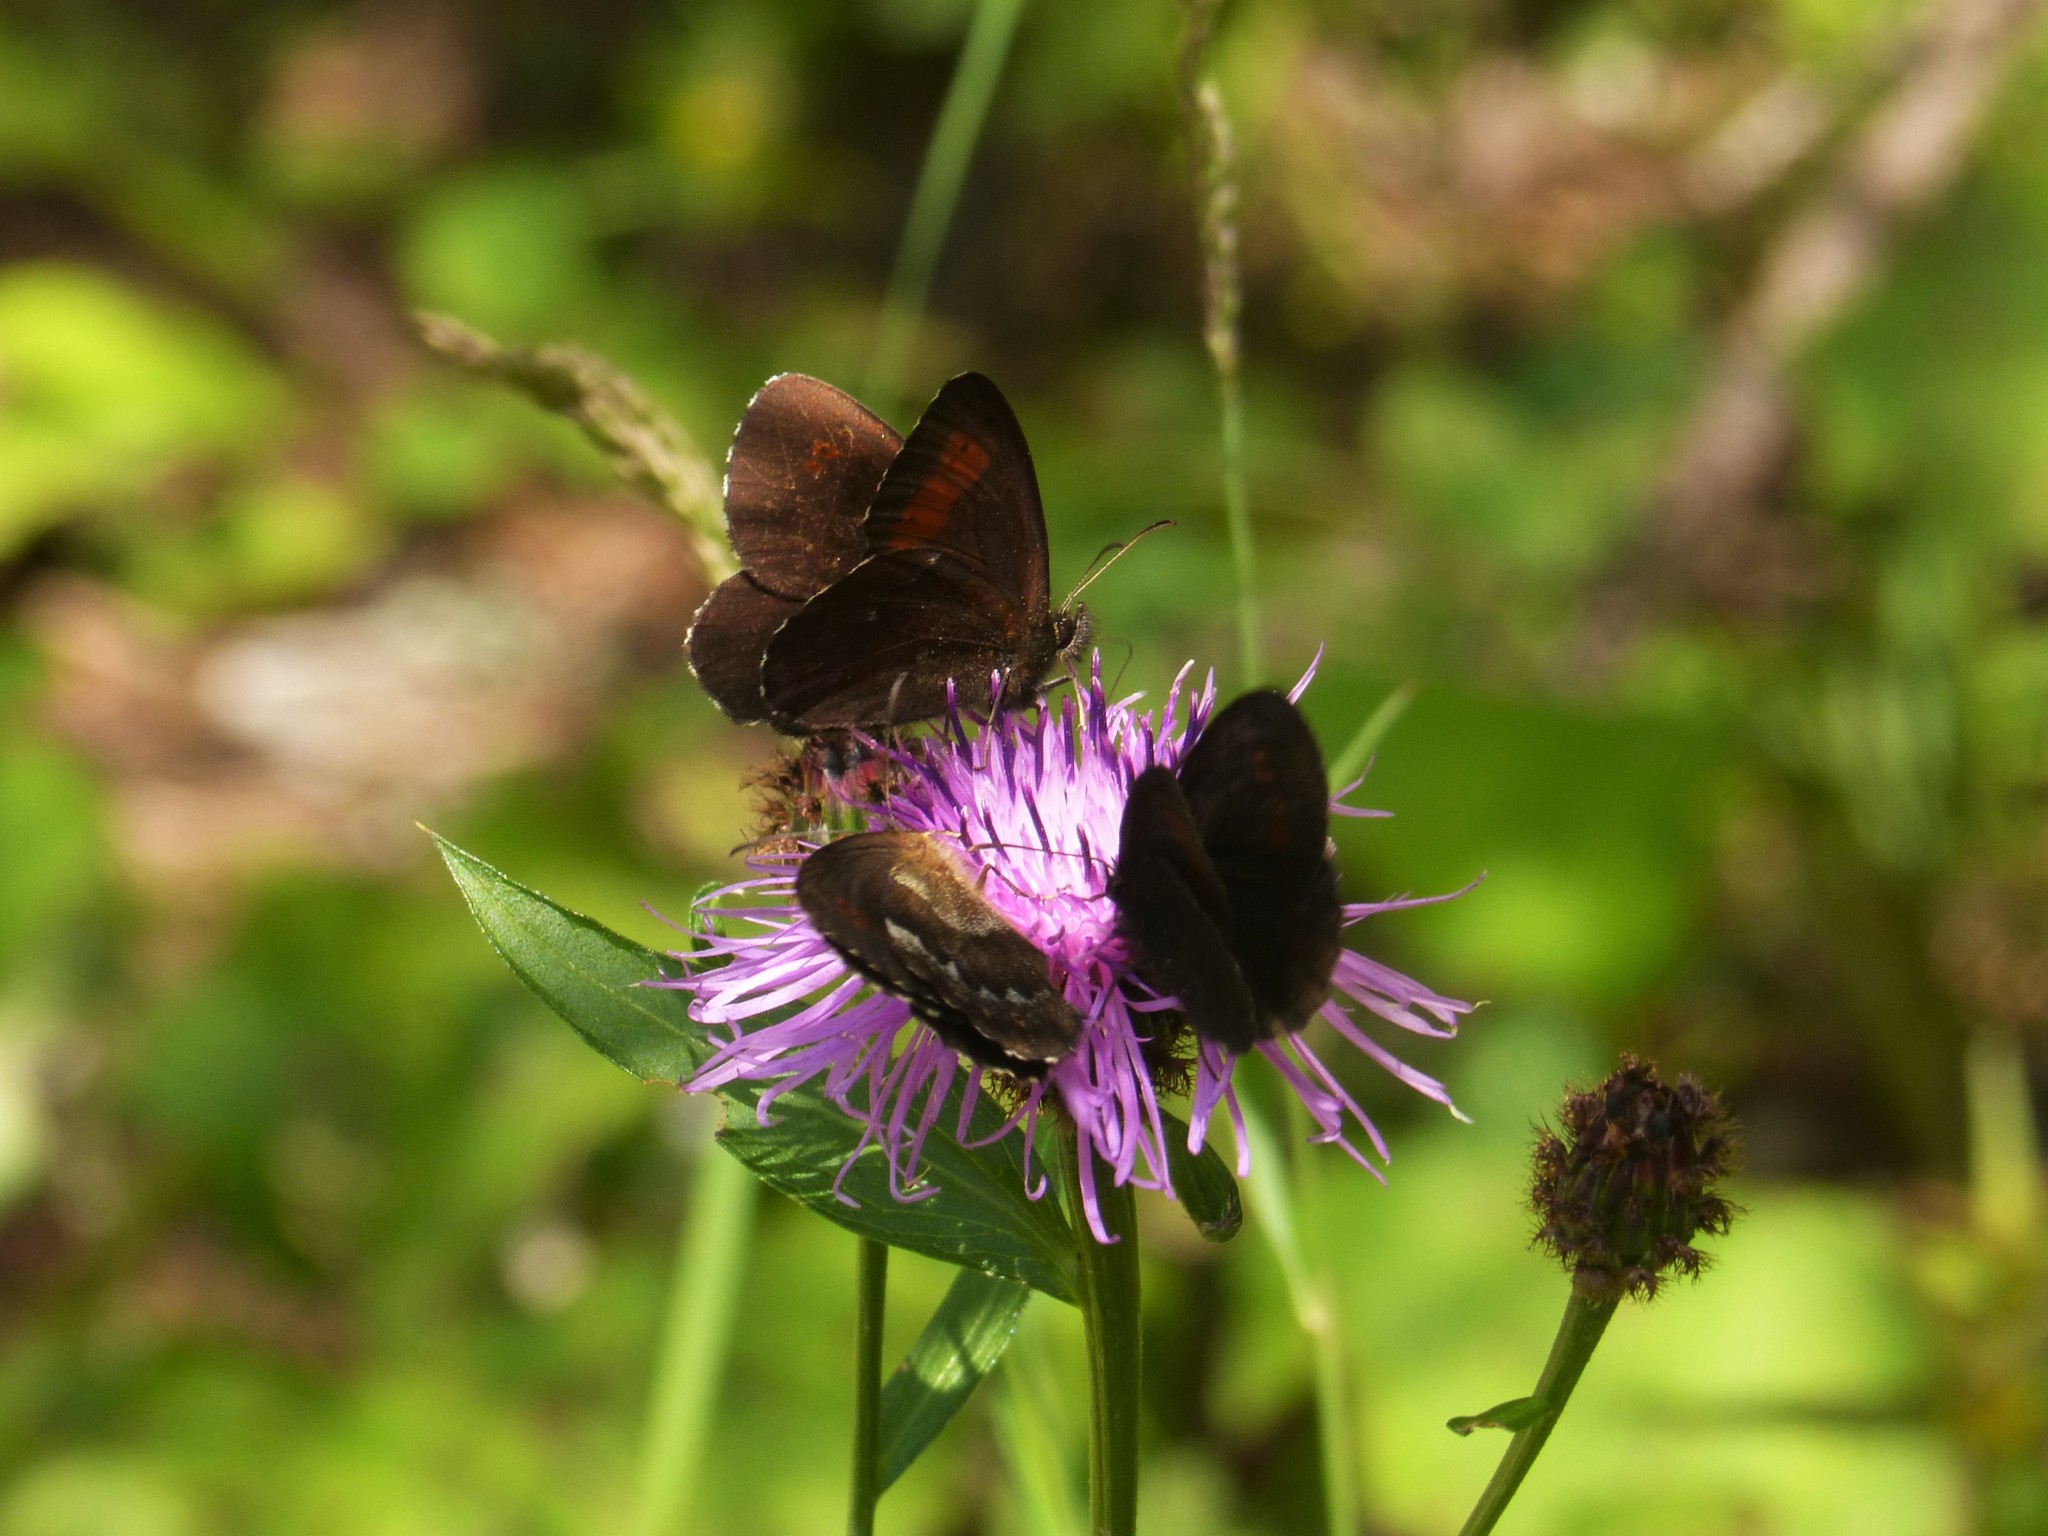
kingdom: Animalia
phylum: Arthropoda
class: Insecta
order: Lepidoptera
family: Nymphalidae
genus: Erebia
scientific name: Erebia euryale
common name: Large ringlet
